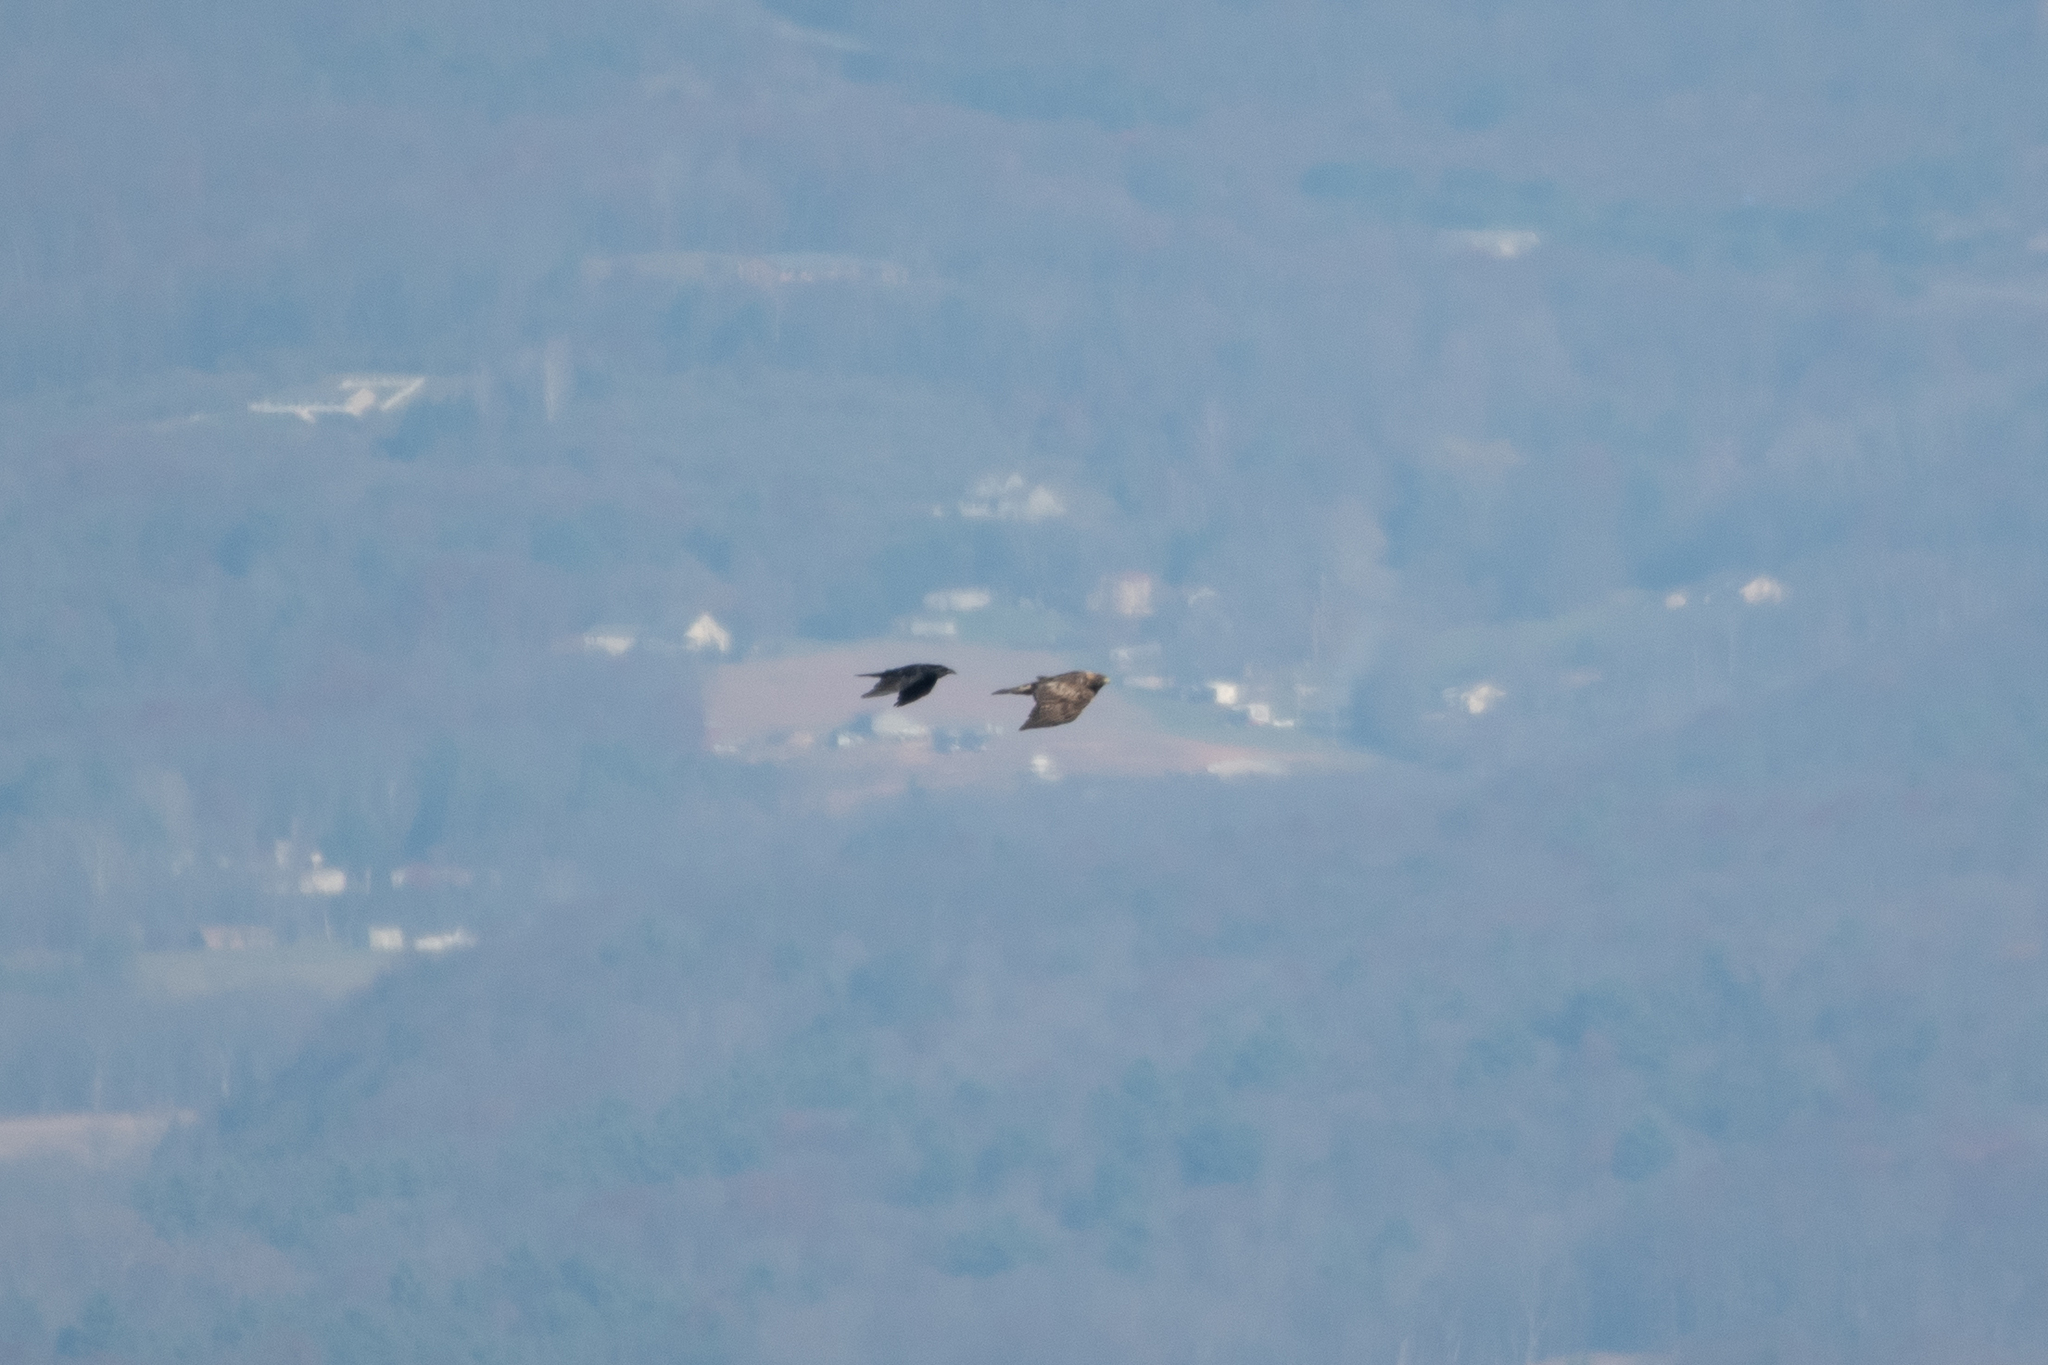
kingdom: Animalia
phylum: Chordata
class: Aves
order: Accipitriformes
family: Accipitridae
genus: Aquila
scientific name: Aquila chrysaetos
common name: Golden eagle
